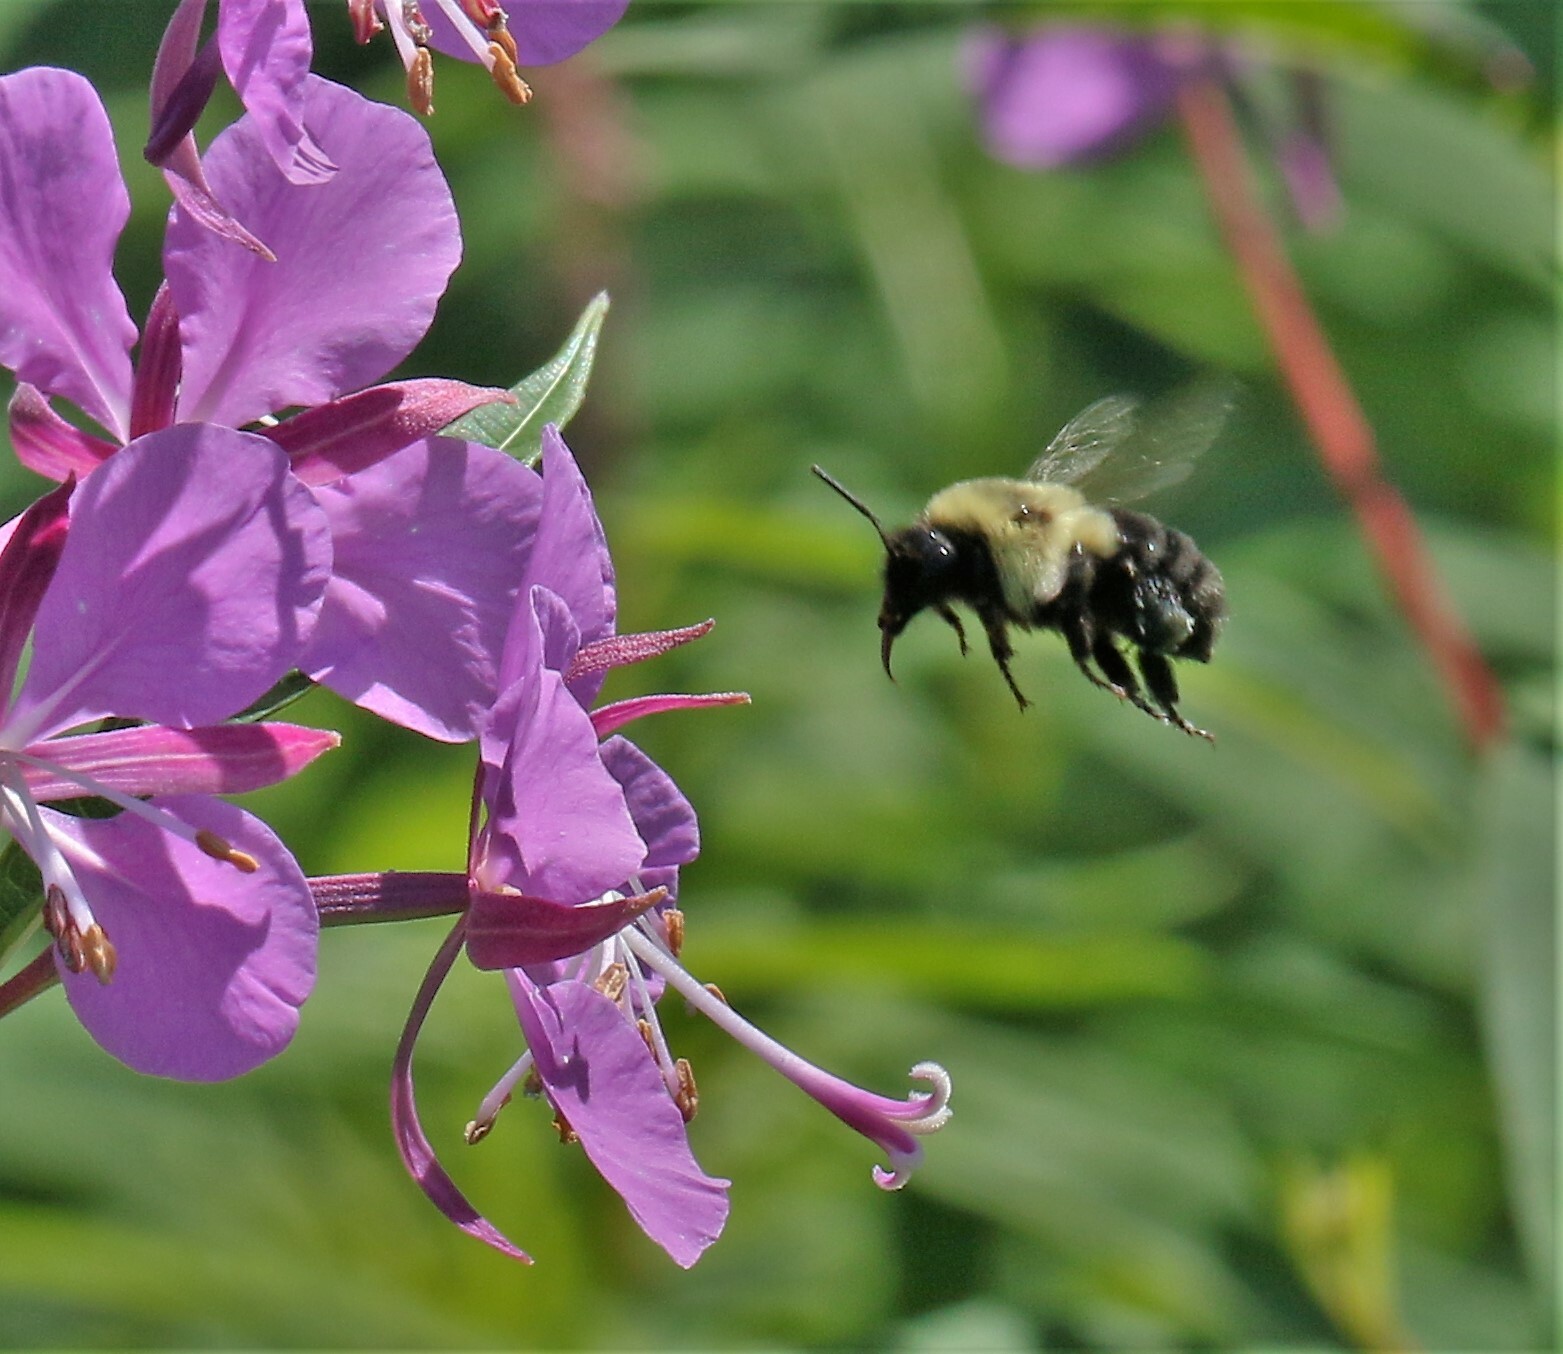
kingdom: Animalia
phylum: Arthropoda
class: Insecta
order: Hymenoptera
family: Apidae
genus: Bombus
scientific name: Bombus impatiens
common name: Common eastern bumble bee
